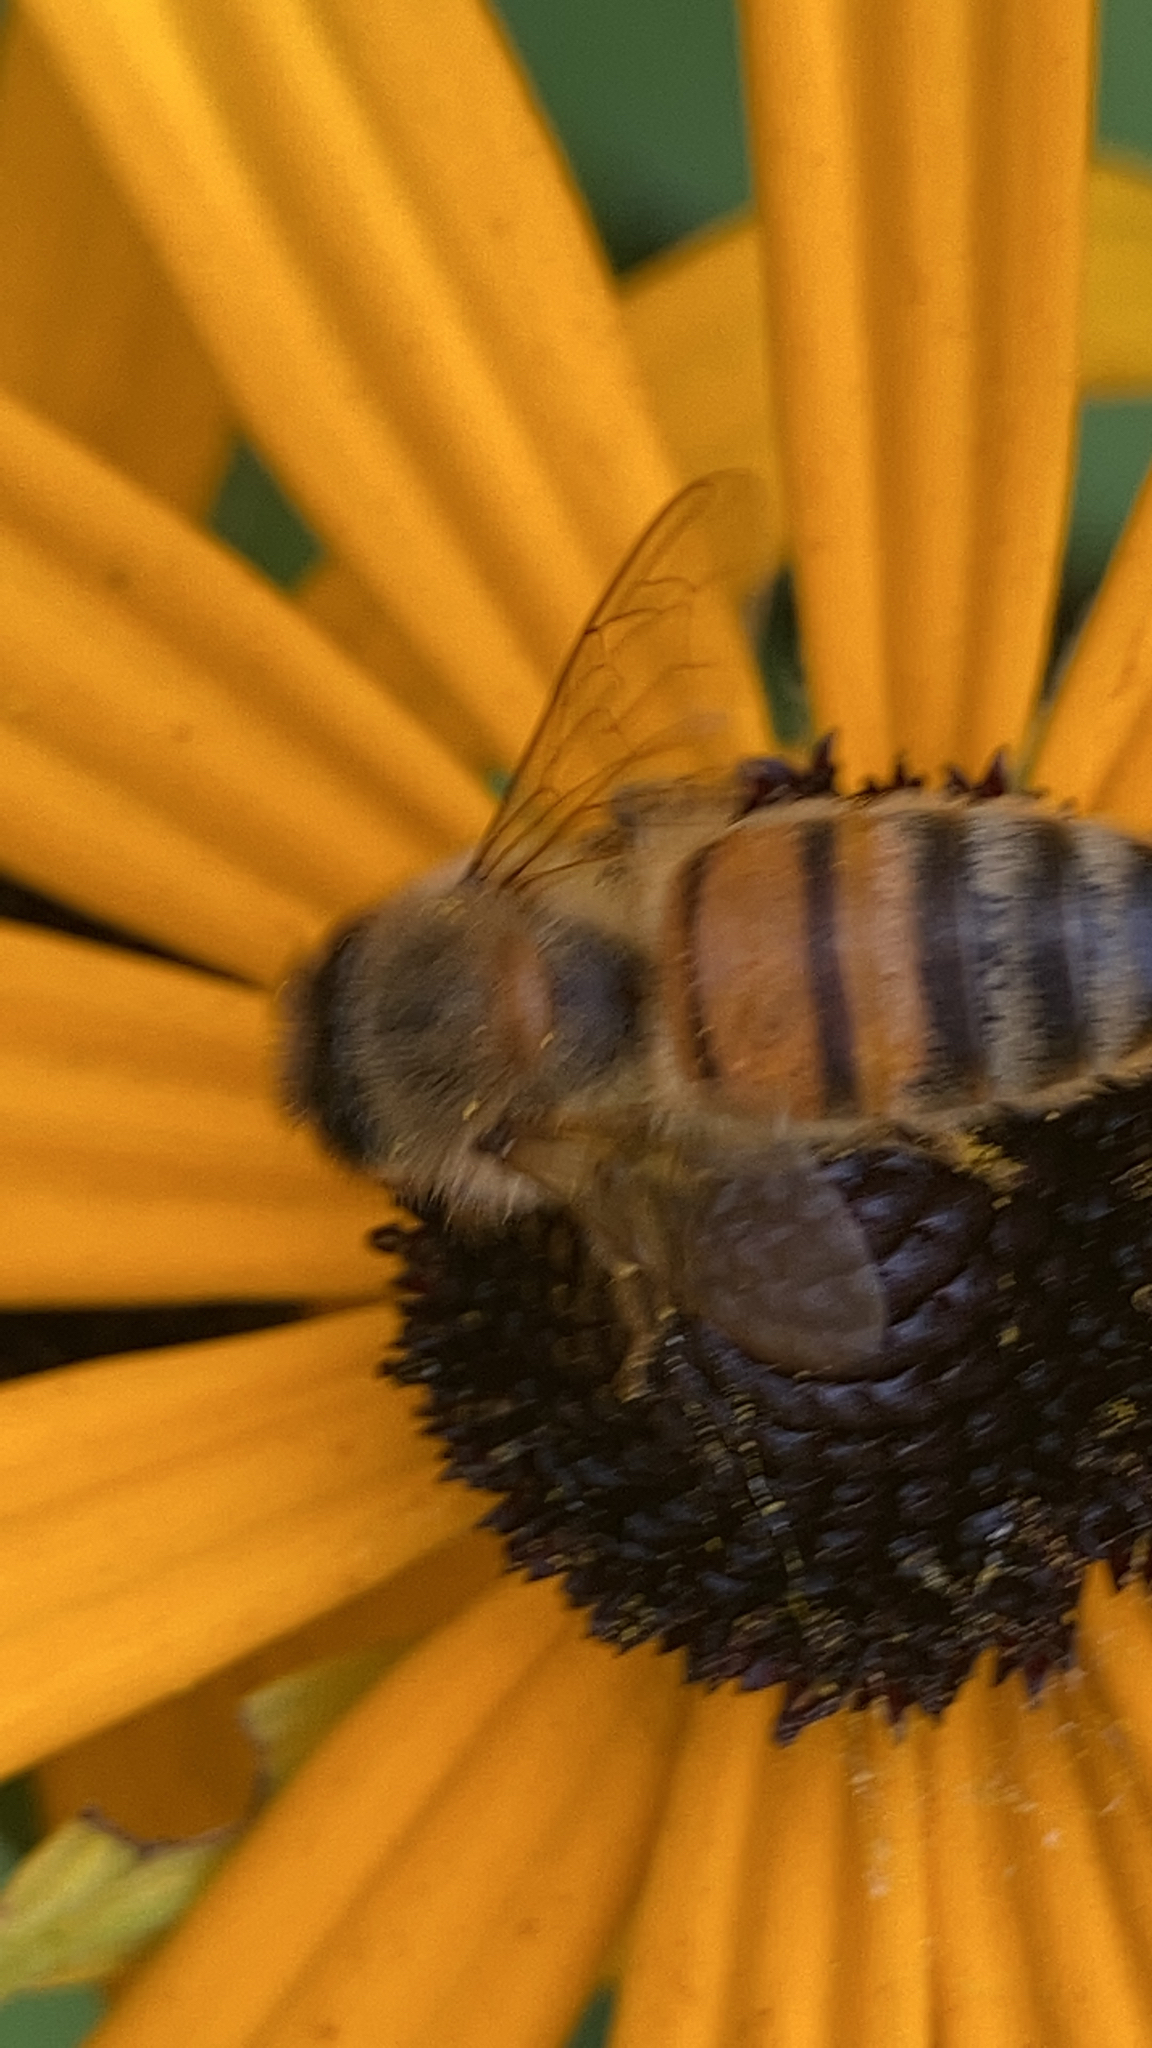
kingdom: Animalia
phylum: Arthropoda
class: Insecta
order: Hymenoptera
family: Apidae
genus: Apis
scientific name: Apis mellifera
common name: Honey bee
